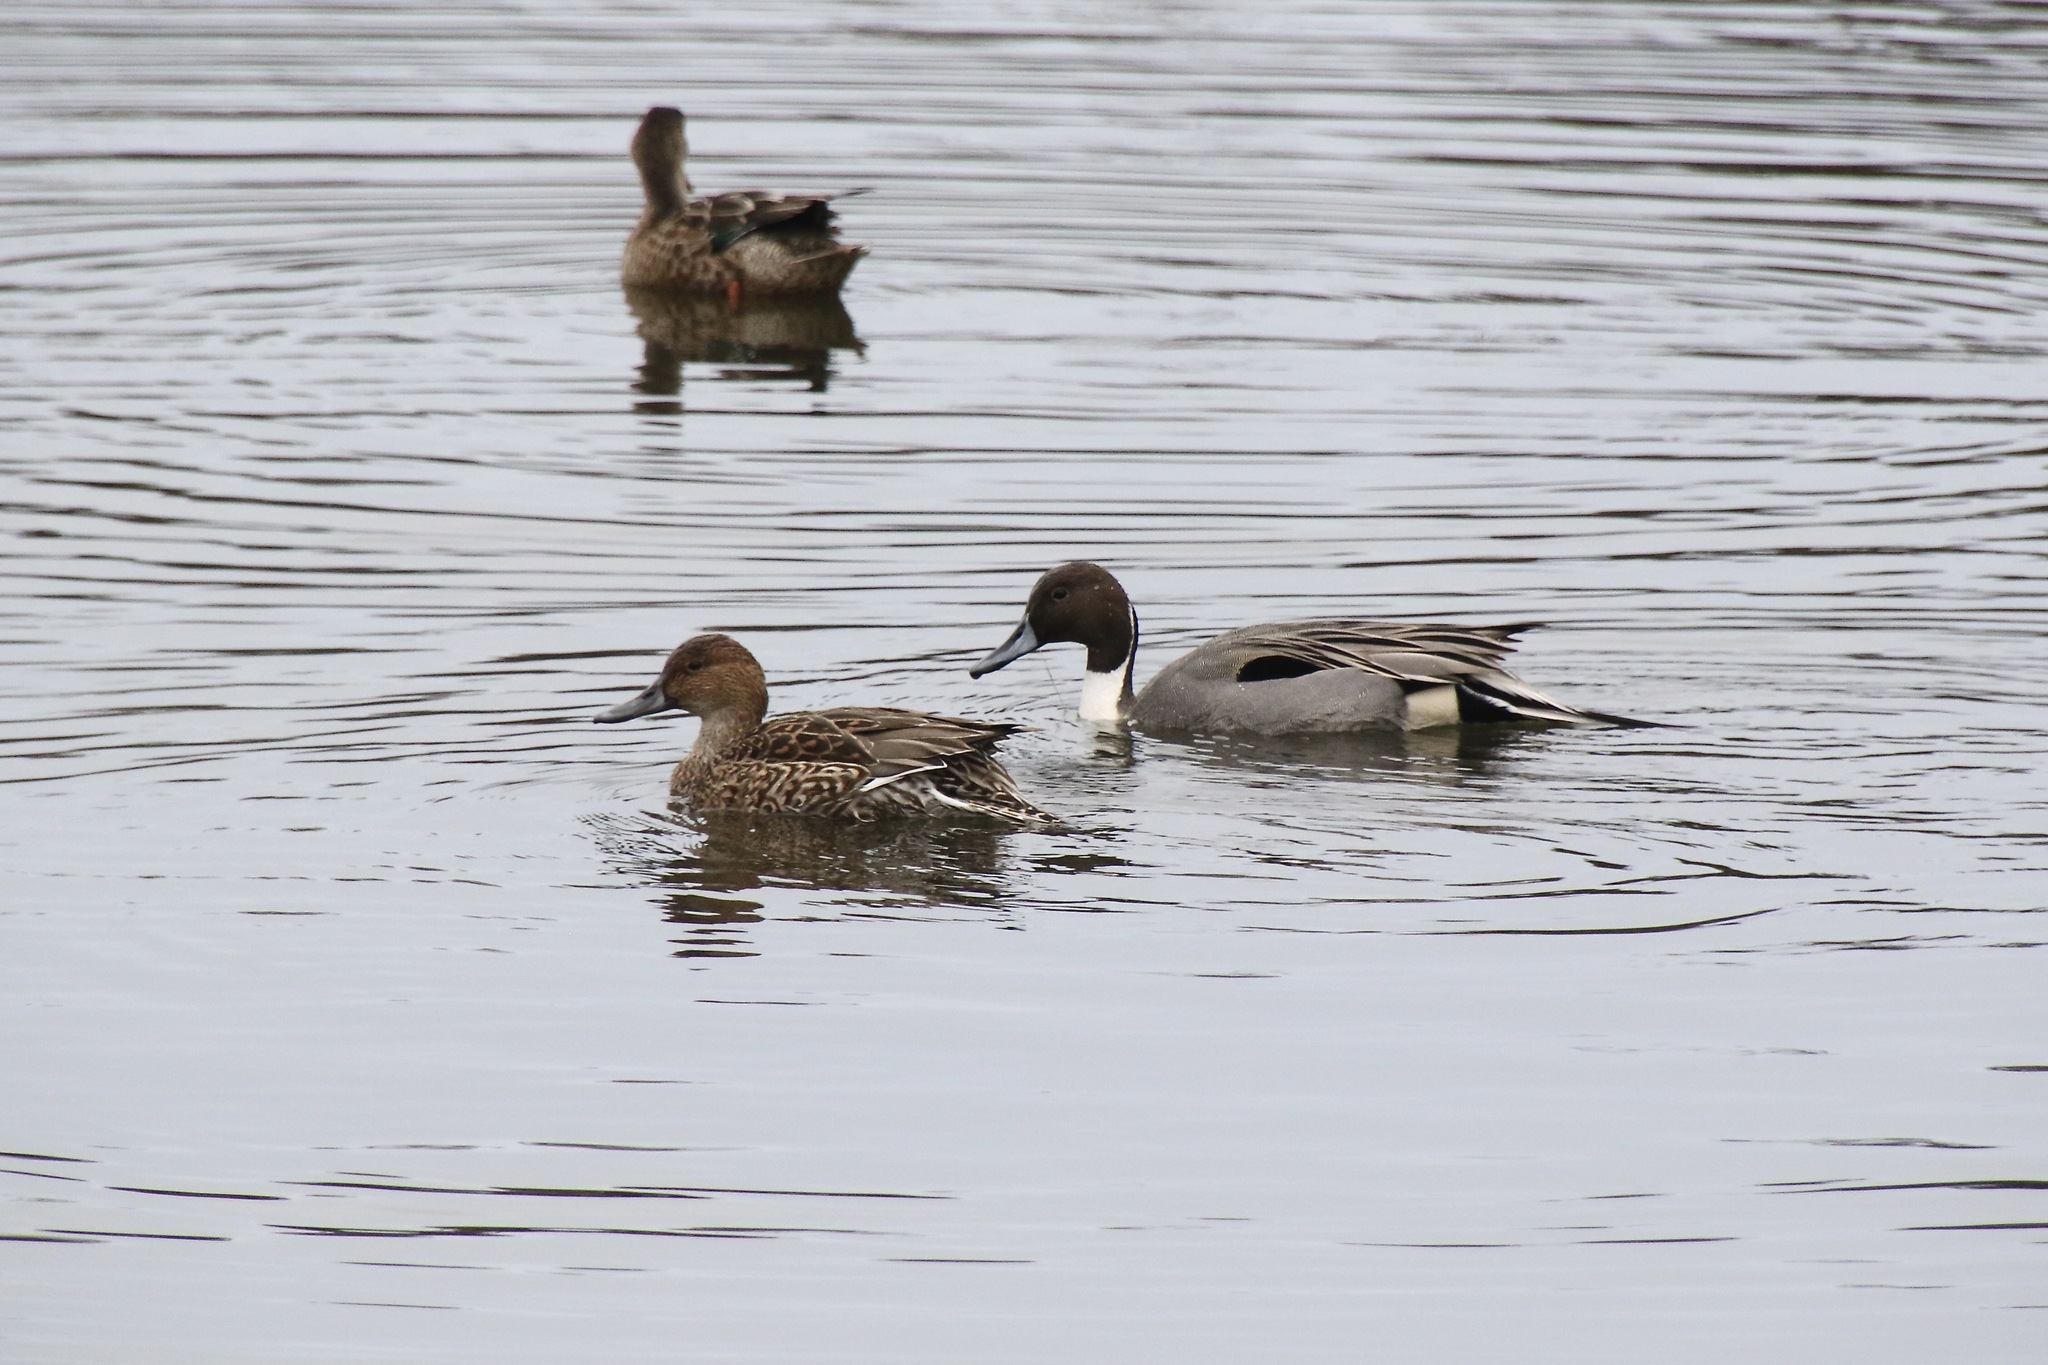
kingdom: Animalia
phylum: Chordata
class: Aves
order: Anseriformes
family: Anatidae
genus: Anas
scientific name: Anas acuta
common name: Northern pintail
